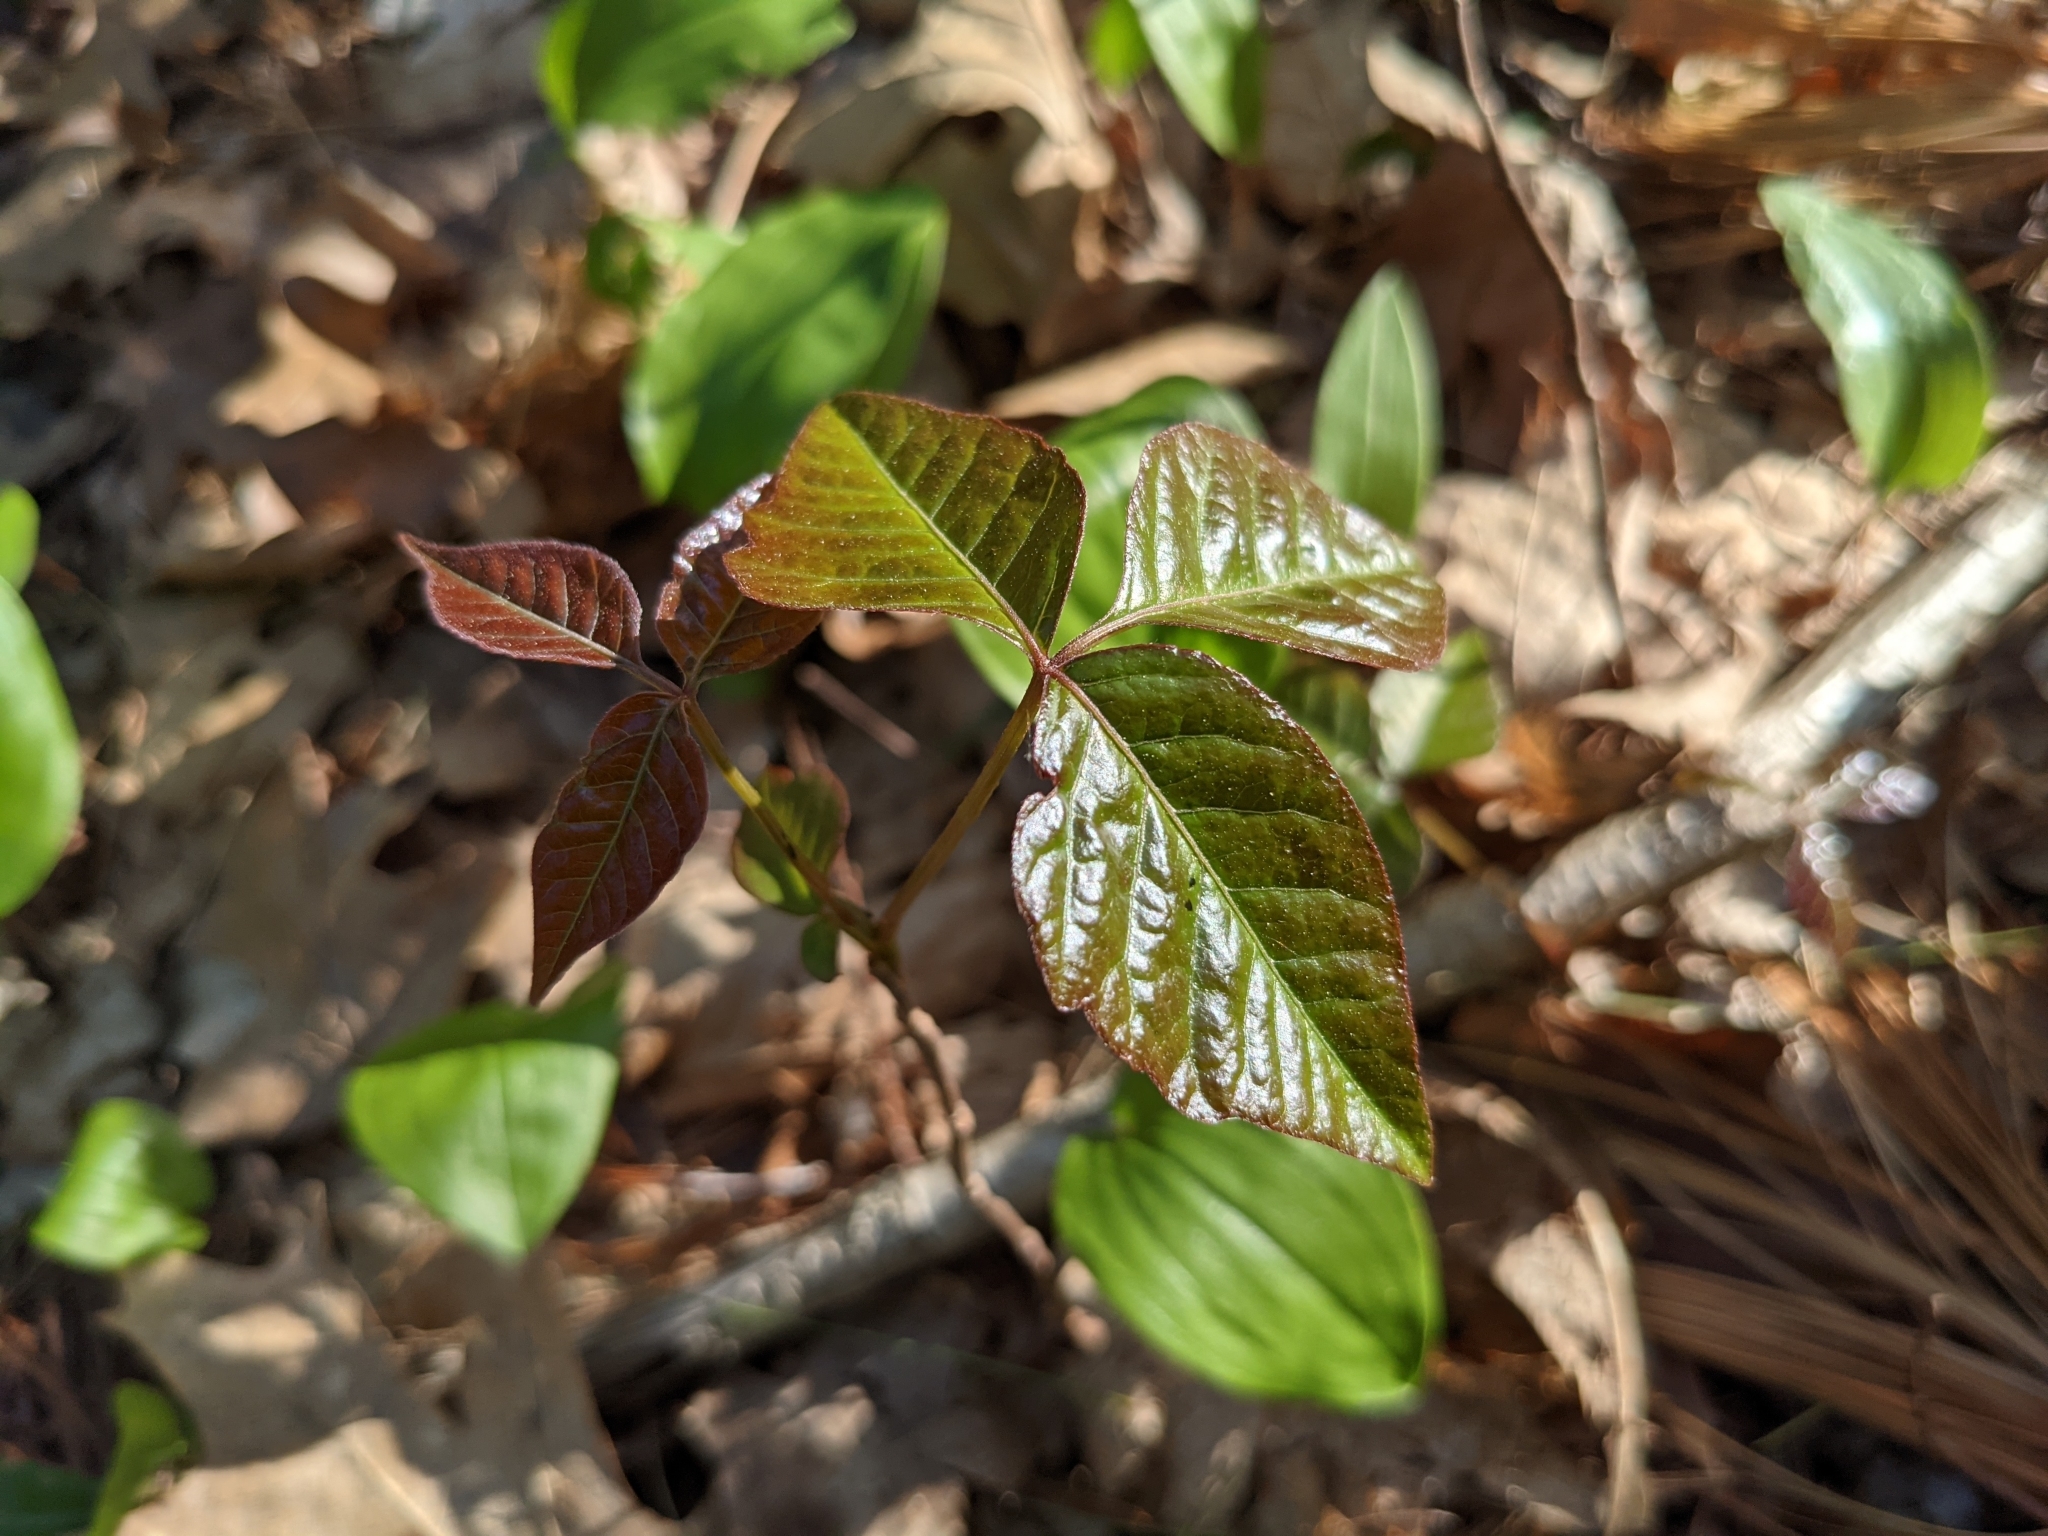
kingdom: Plantae
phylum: Tracheophyta
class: Magnoliopsida
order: Sapindales
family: Anacardiaceae
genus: Toxicodendron
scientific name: Toxicodendron radicans
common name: Poison ivy
